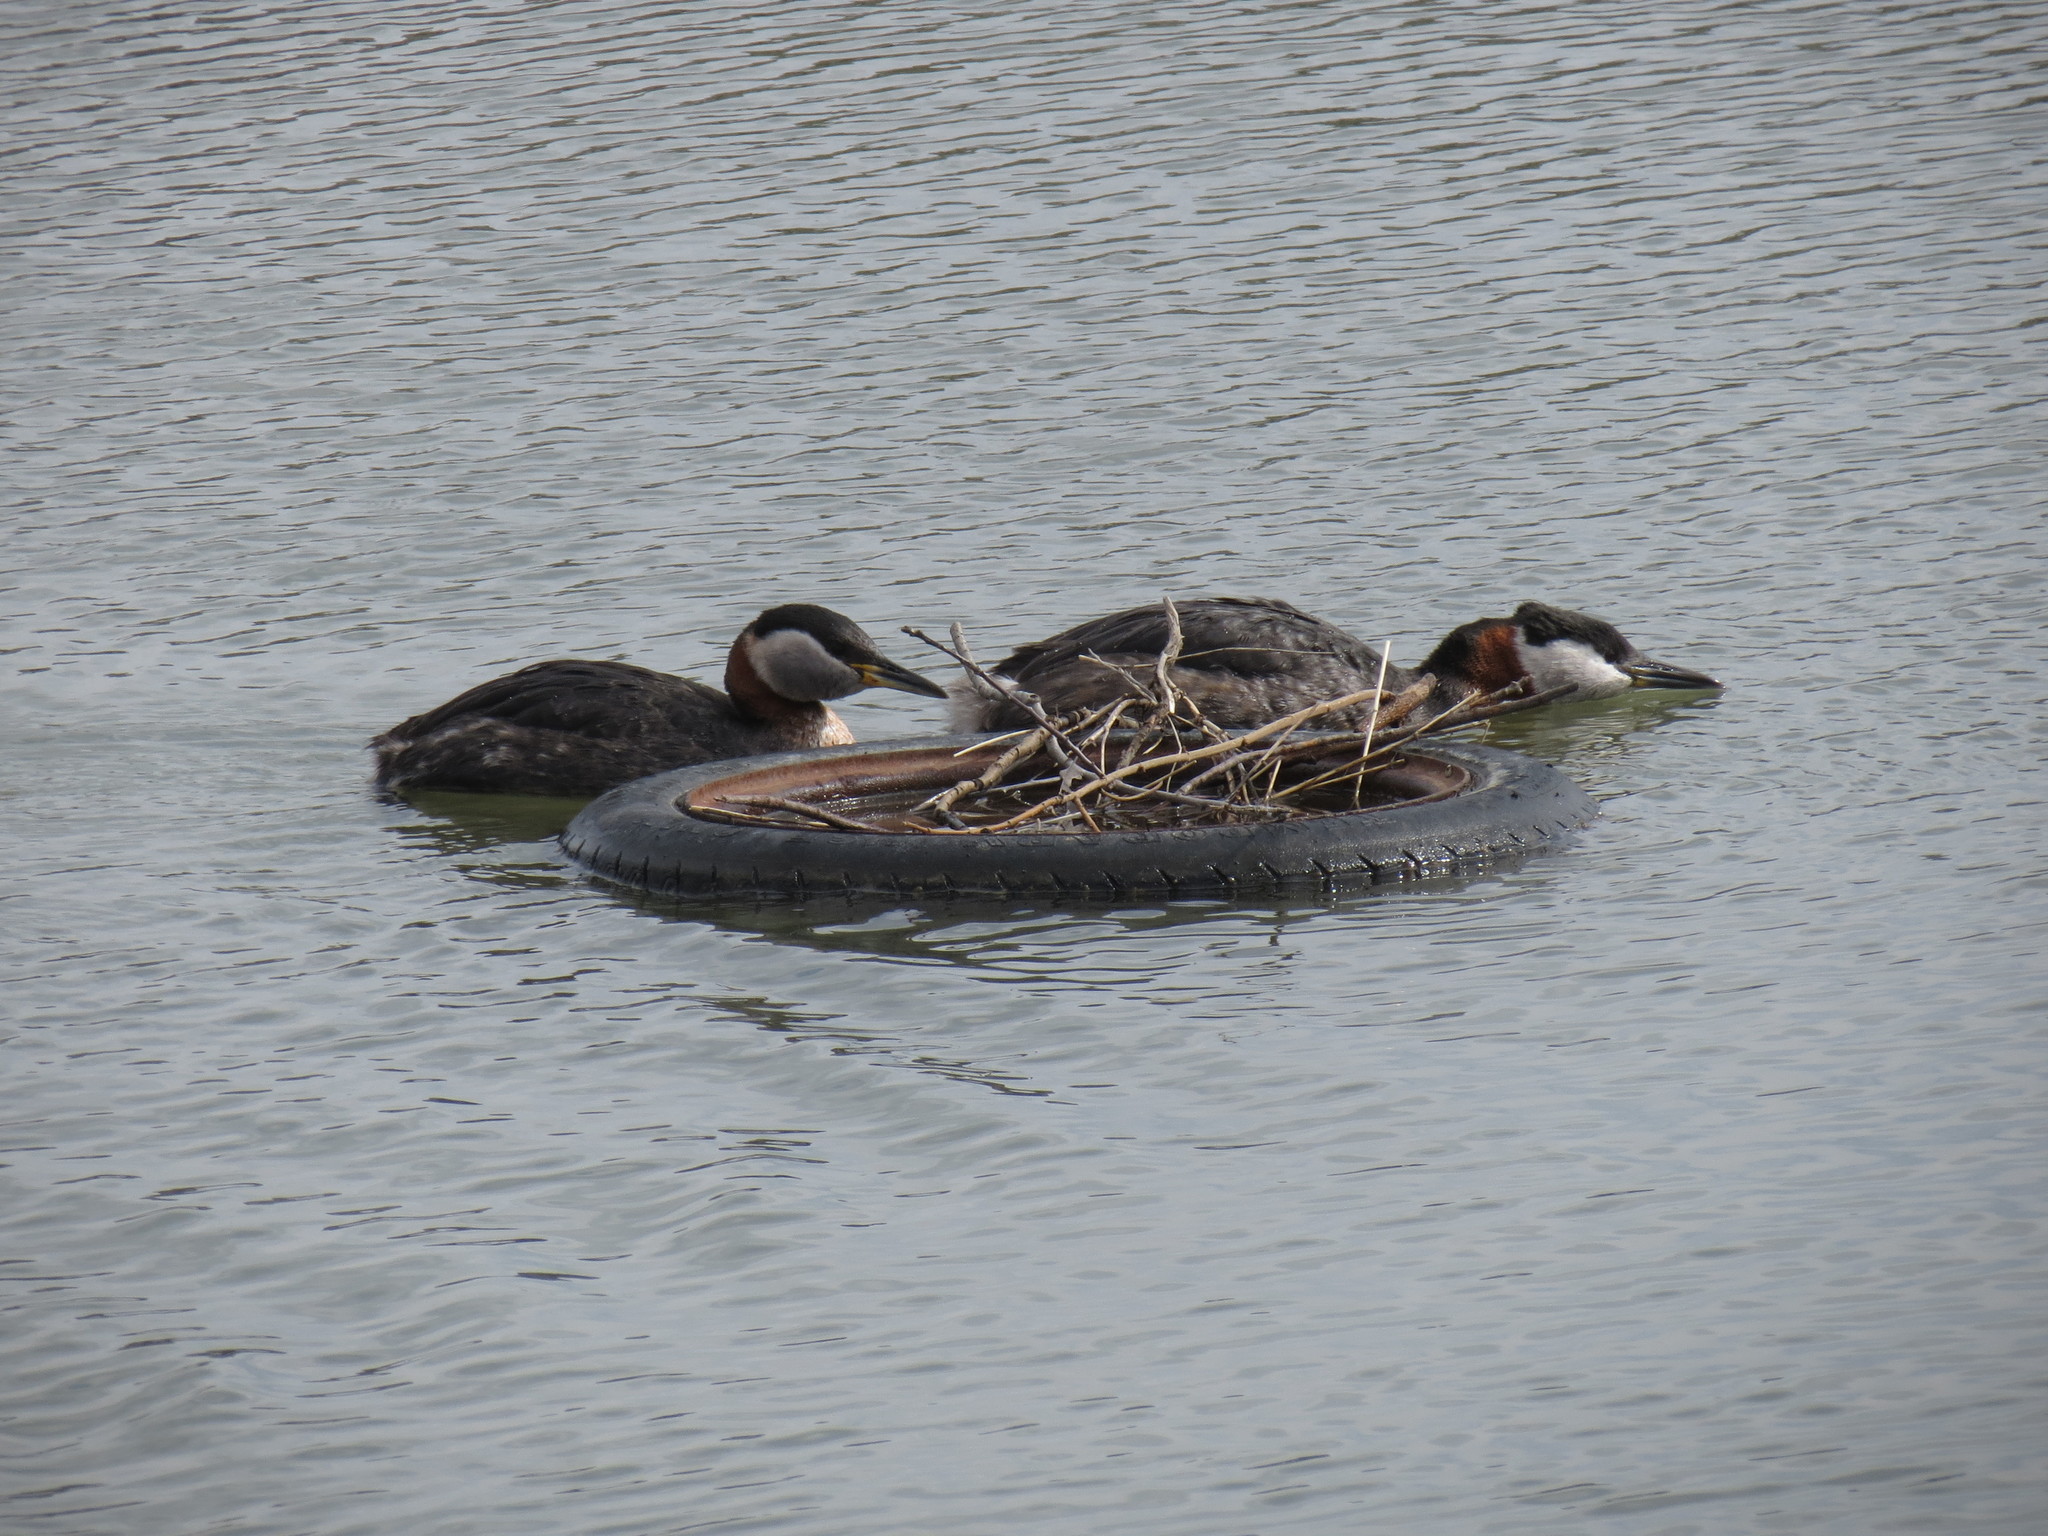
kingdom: Animalia
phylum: Chordata
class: Aves
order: Podicipediformes
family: Podicipedidae
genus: Podiceps
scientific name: Podiceps grisegena
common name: Red-necked grebe
